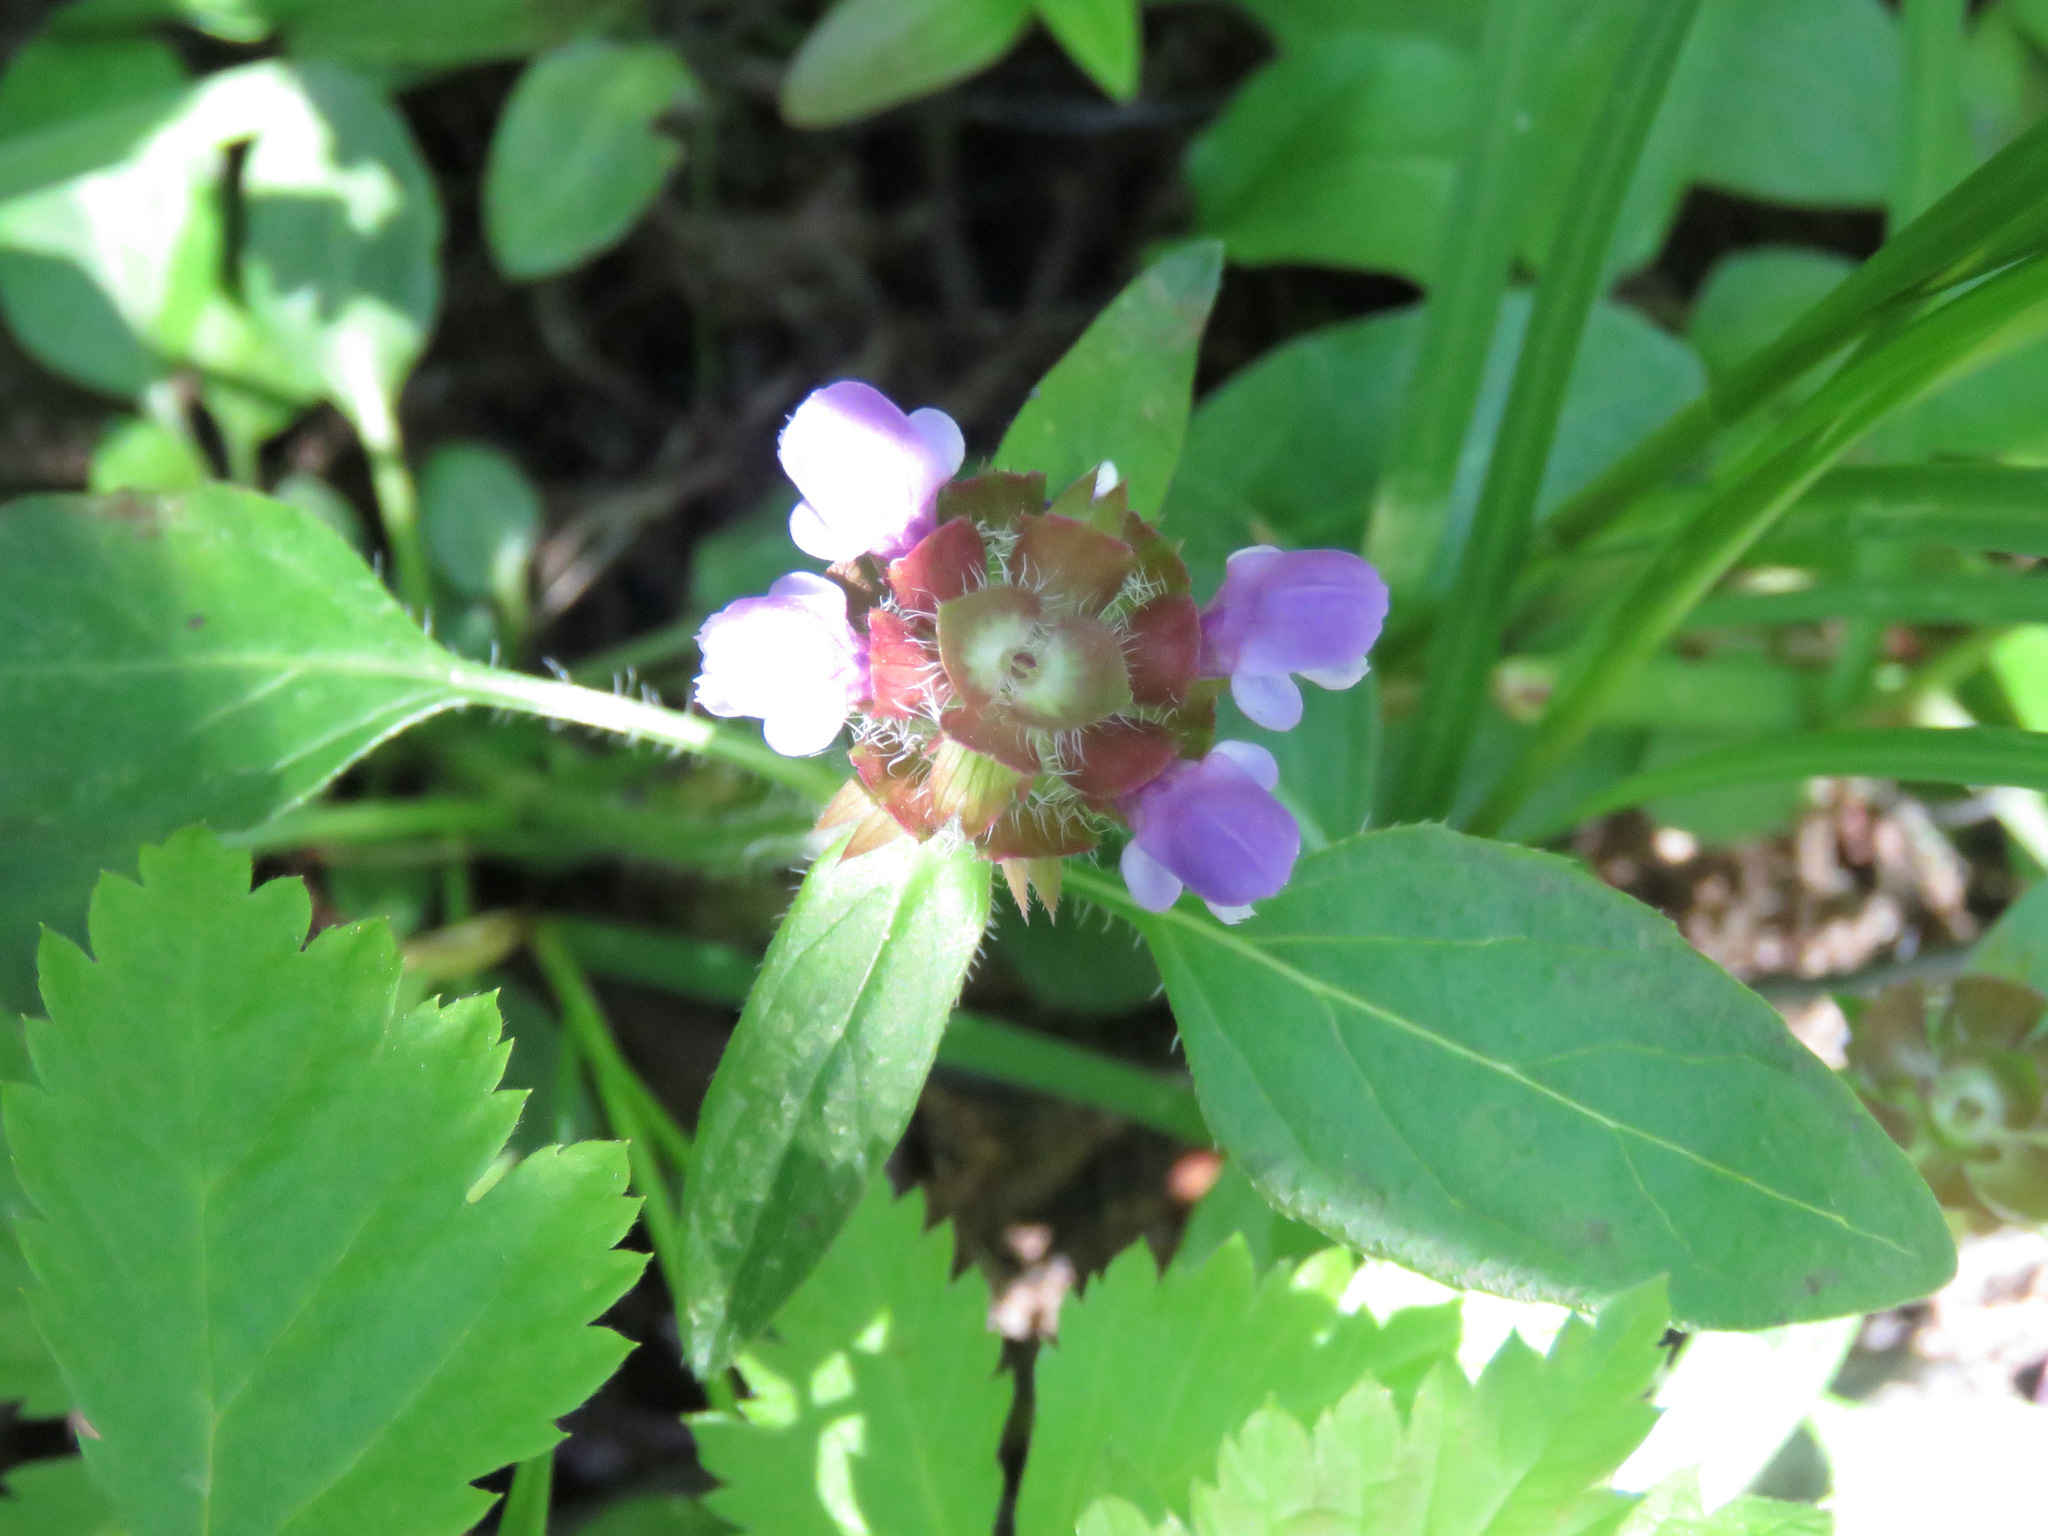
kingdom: Plantae
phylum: Tracheophyta
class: Magnoliopsida
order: Lamiales
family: Lamiaceae
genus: Prunella
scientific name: Prunella vulgaris
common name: Heal-all
